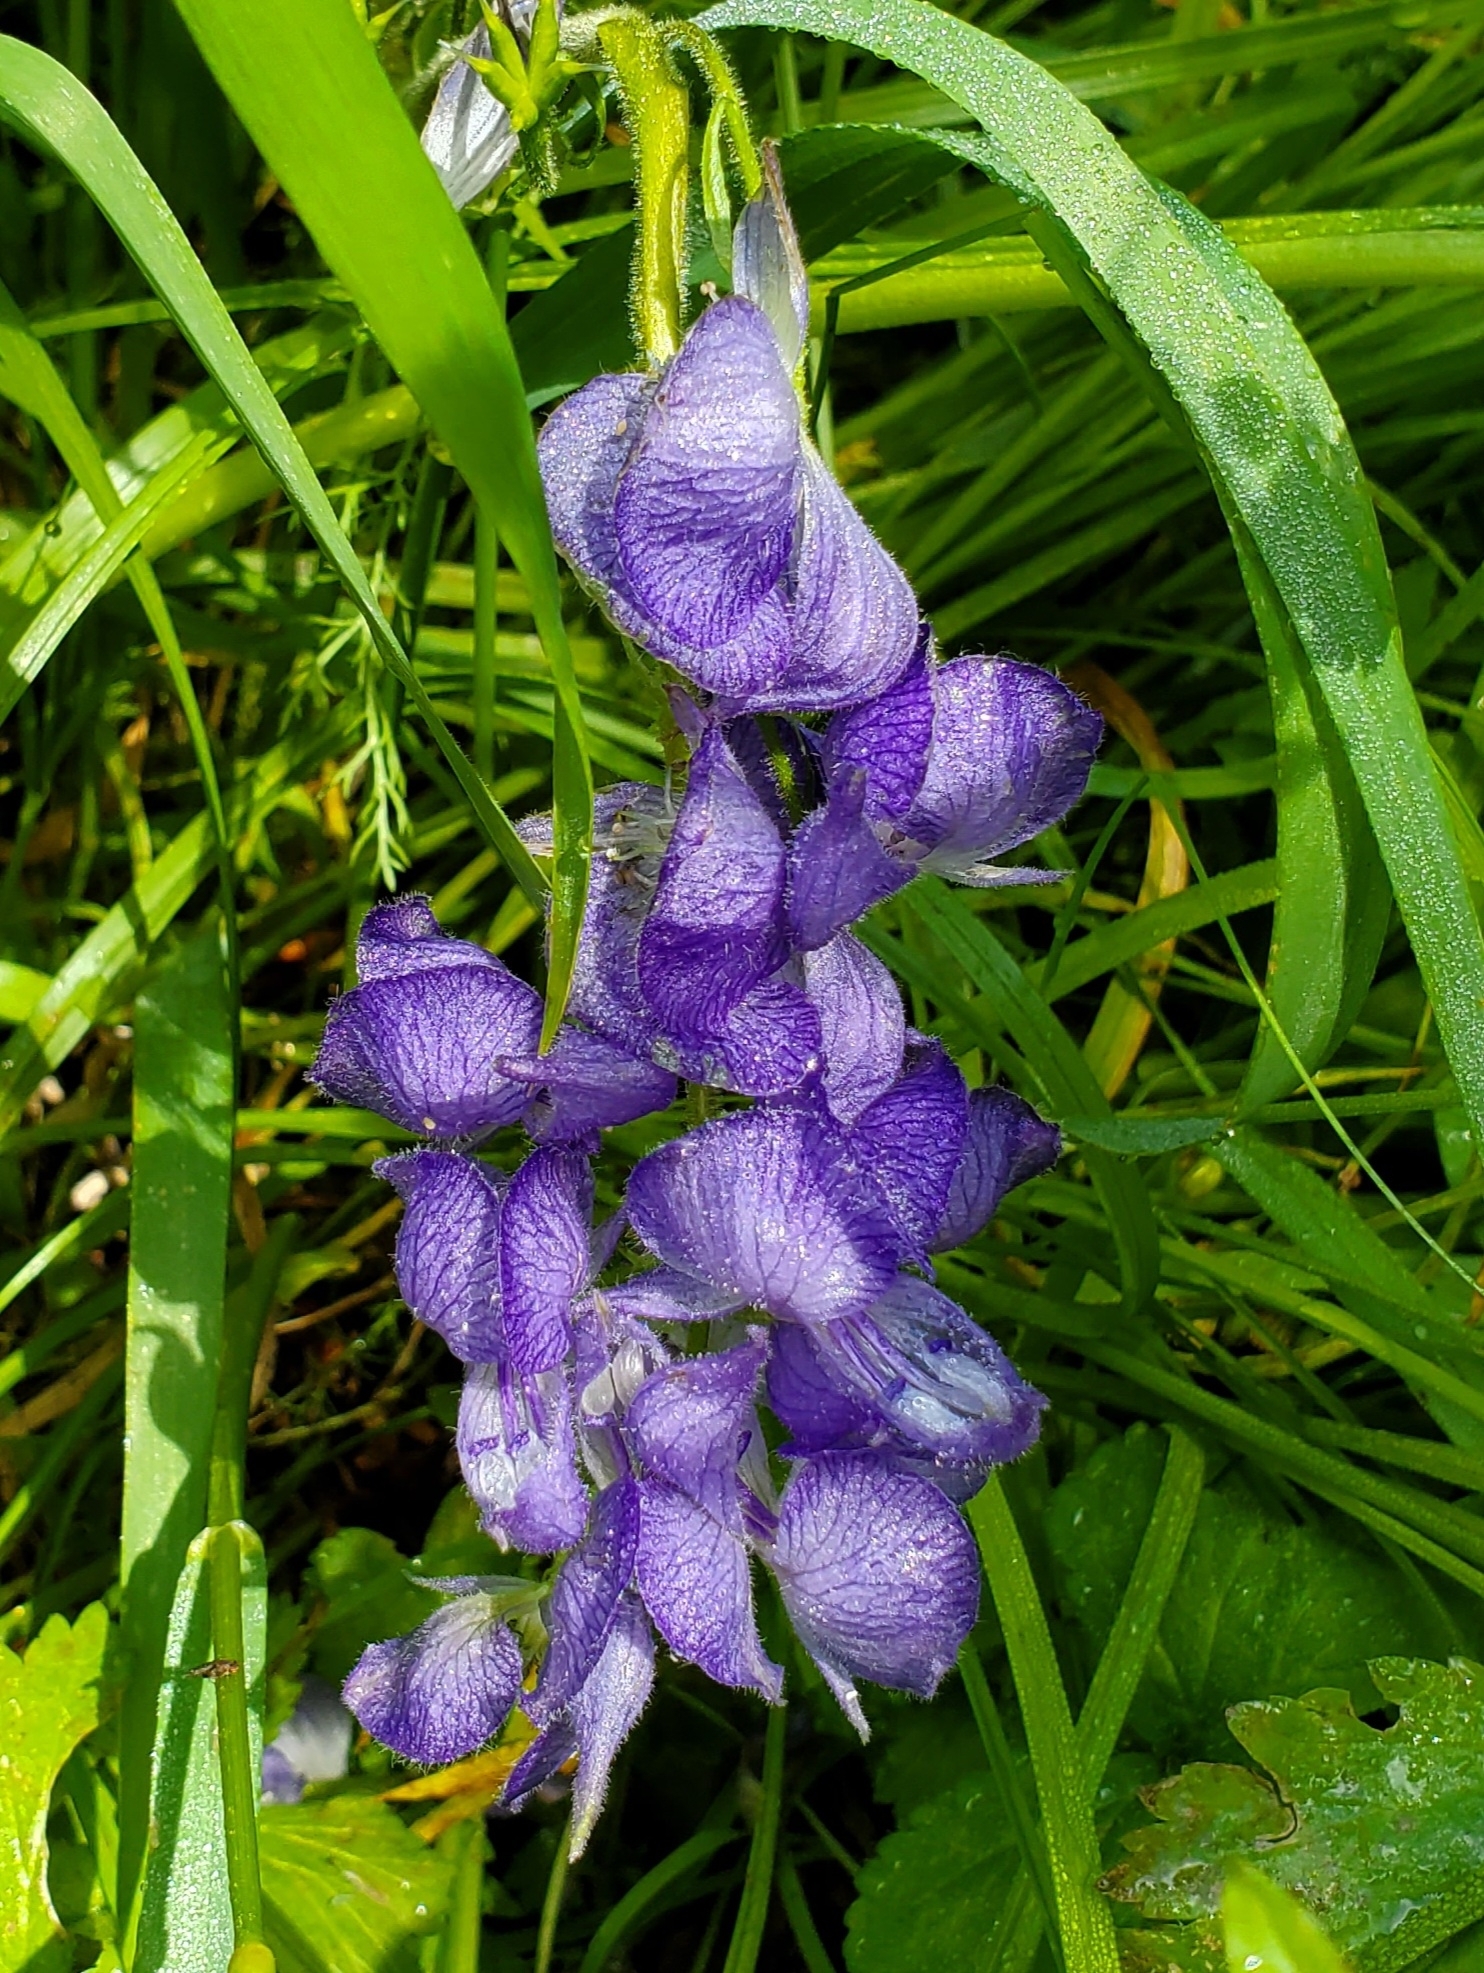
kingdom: Plantae
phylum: Tracheophyta
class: Magnoliopsida
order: Ranunculales
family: Ranunculaceae
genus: Aconitum
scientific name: Aconitum columbianum
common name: Columbia aconite
